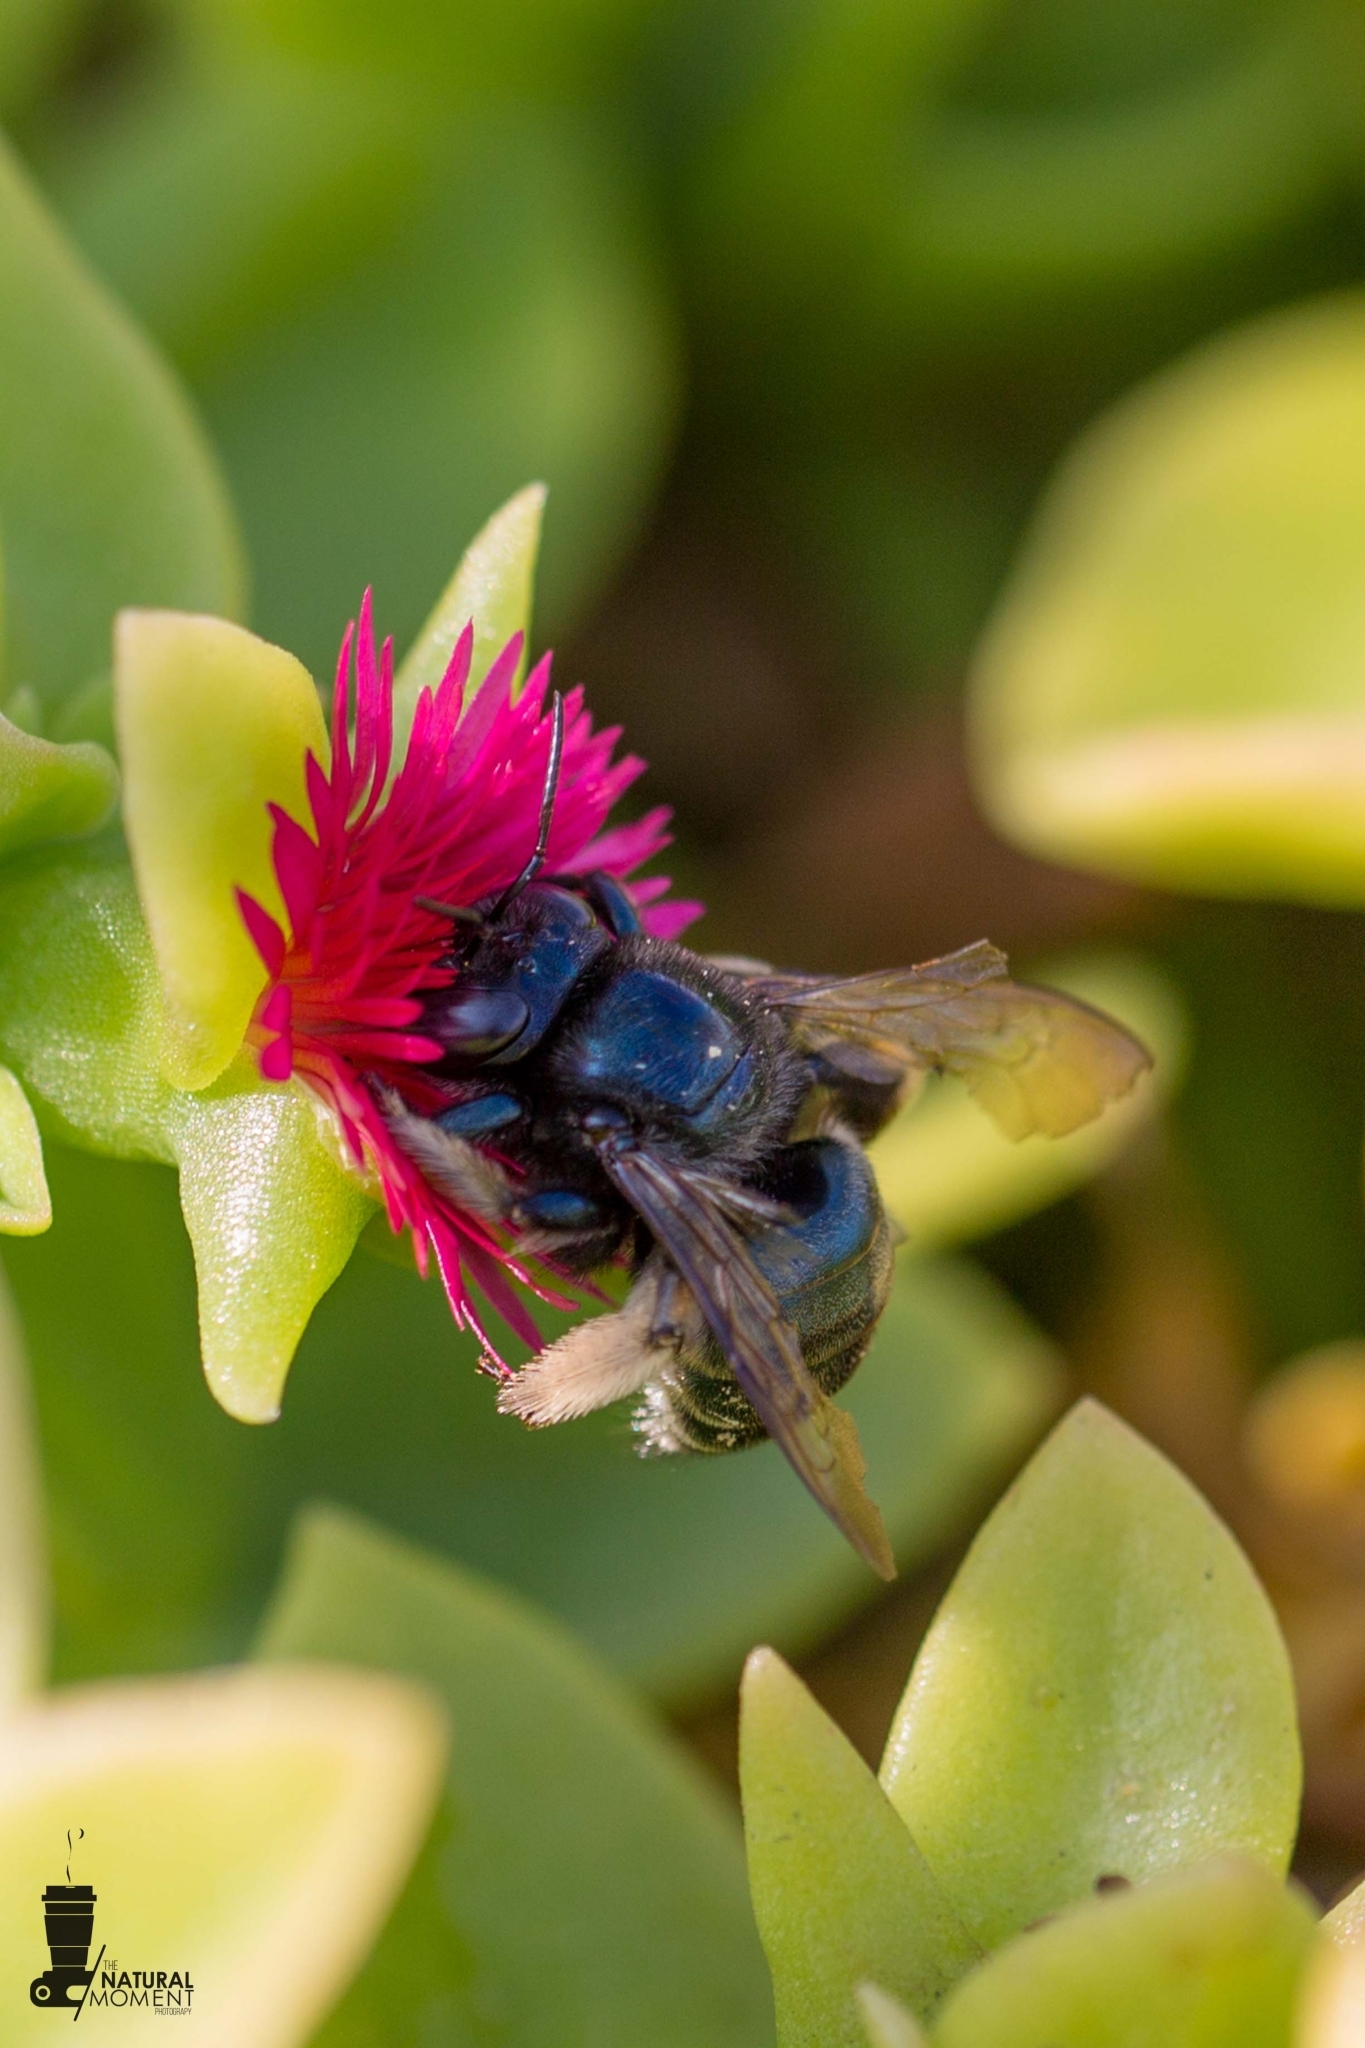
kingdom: Animalia
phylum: Arthropoda
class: Insecta
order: Hymenoptera
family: Apidae
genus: Xylocopa
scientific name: Xylocopa viridis
